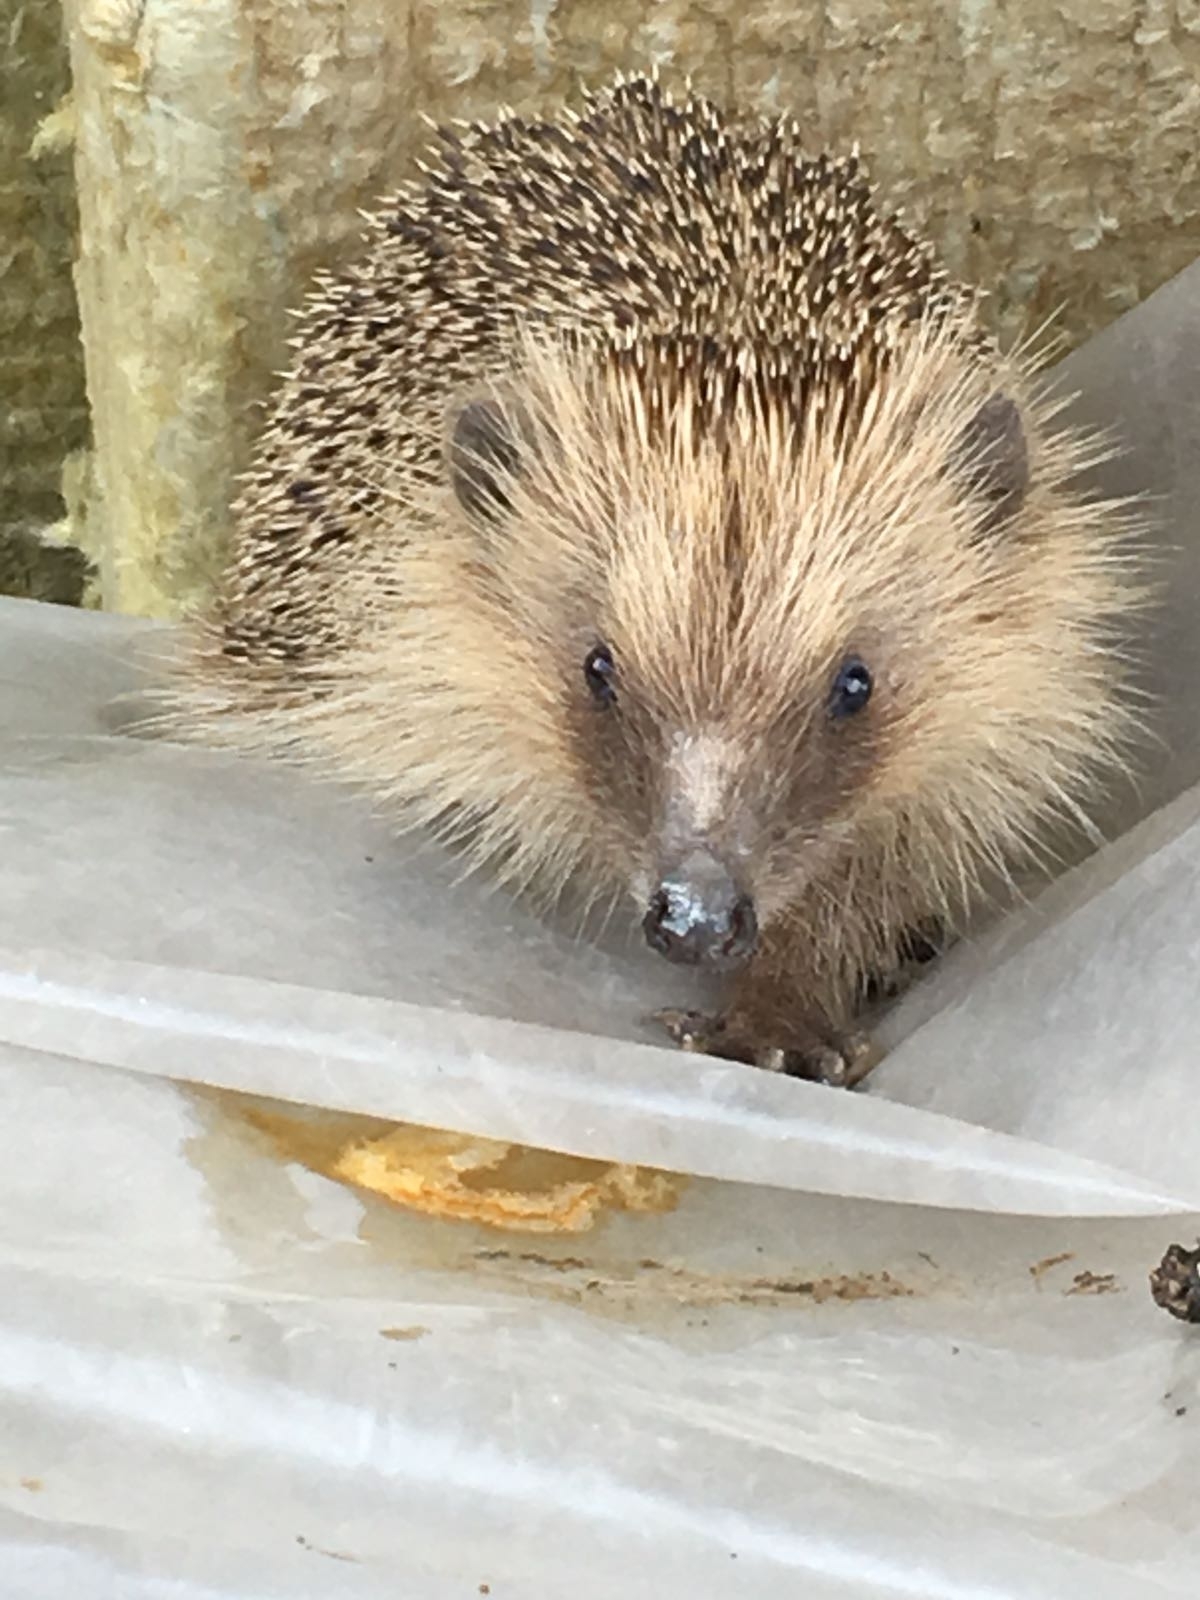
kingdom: Animalia
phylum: Chordata
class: Mammalia
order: Erinaceomorpha
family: Erinaceidae
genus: Erinaceus
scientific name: Erinaceus europaeus
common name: West european hedgehog
